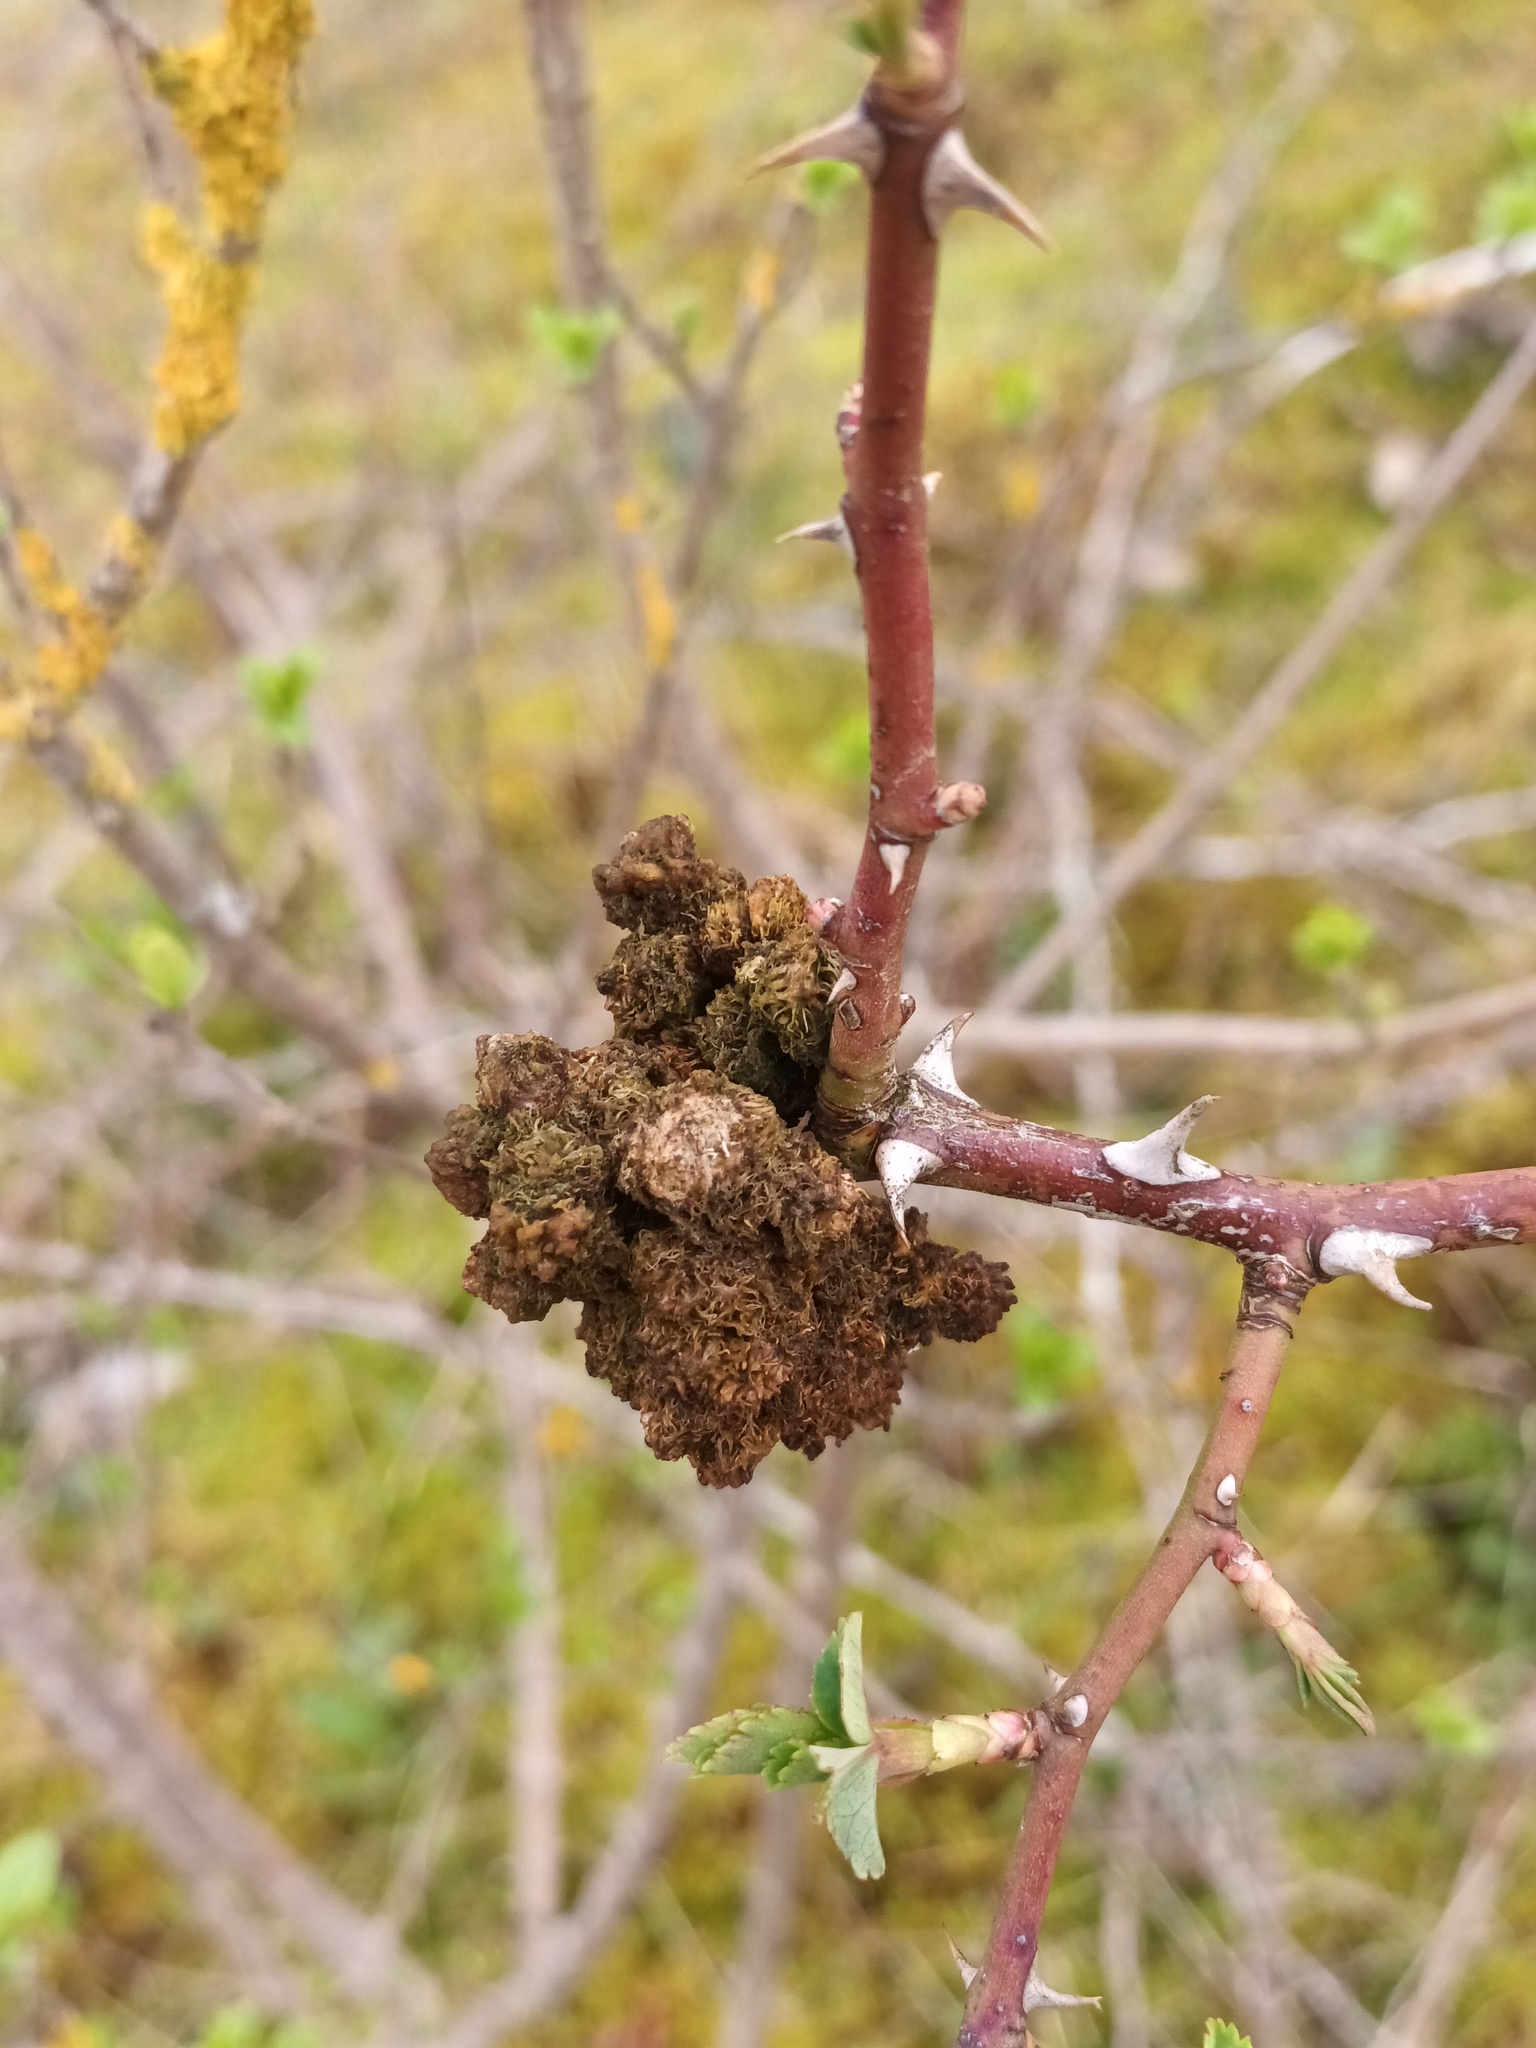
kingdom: Animalia
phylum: Arthropoda
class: Insecta
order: Hymenoptera
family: Cynipidae
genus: Diplolepis
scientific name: Diplolepis rosae
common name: Bedeguar gall
